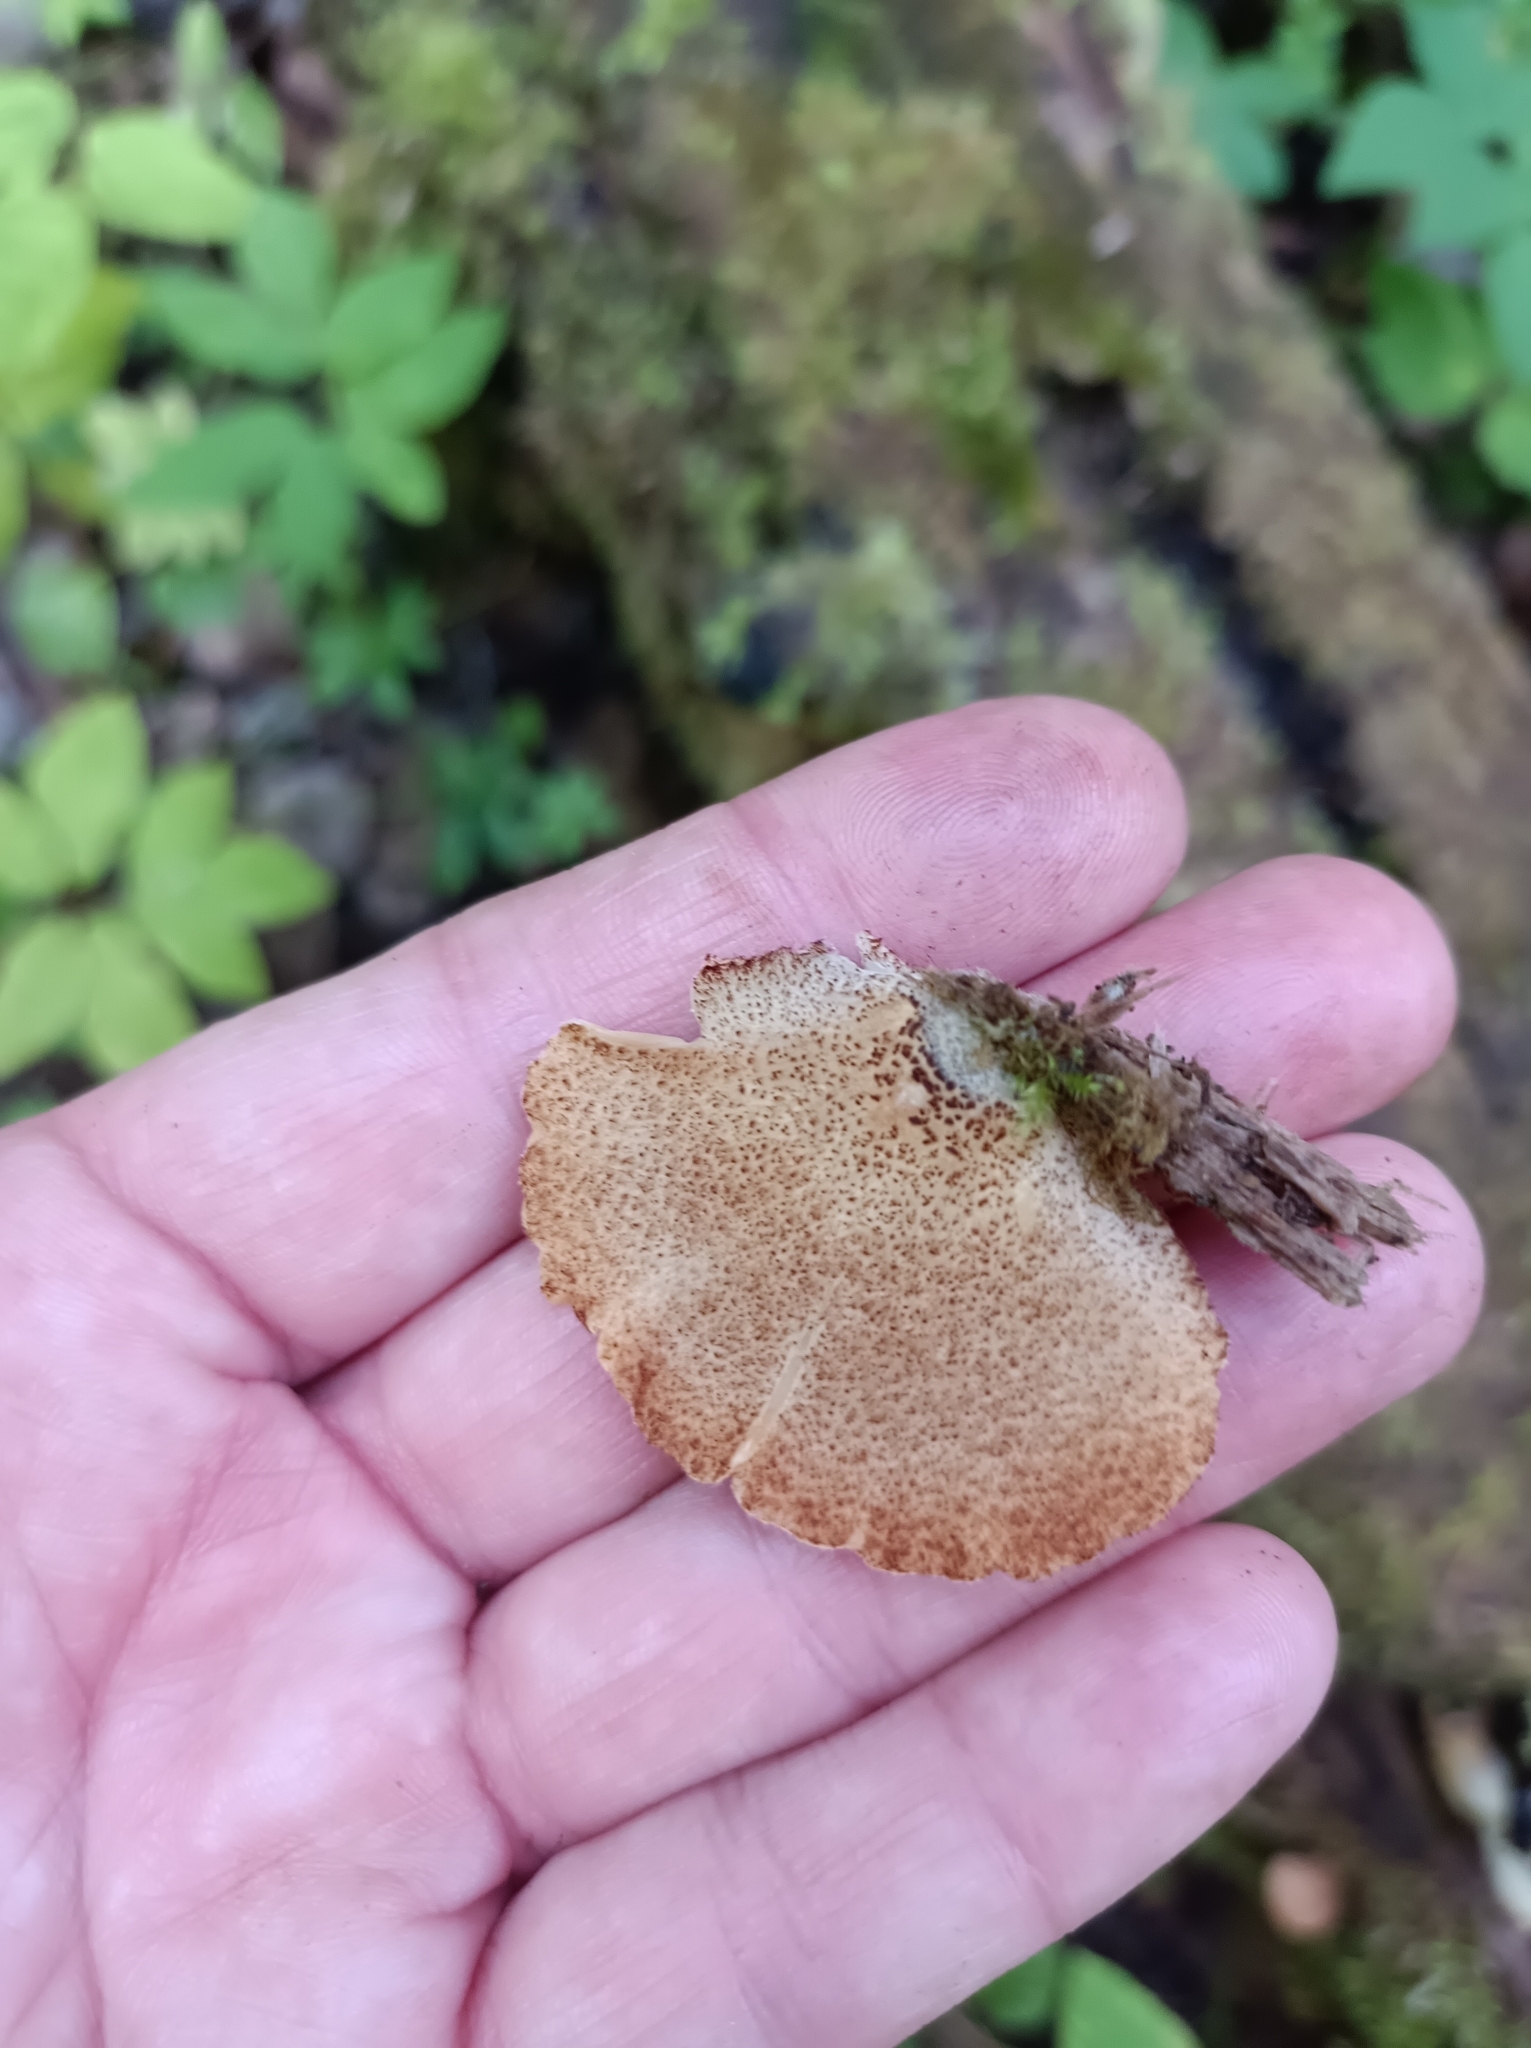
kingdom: Fungi
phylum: Basidiomycota
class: Agaricomycetes
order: Agaricales
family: Crepidotaceae
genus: Crepidotus
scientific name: Crepidotus calolepis
